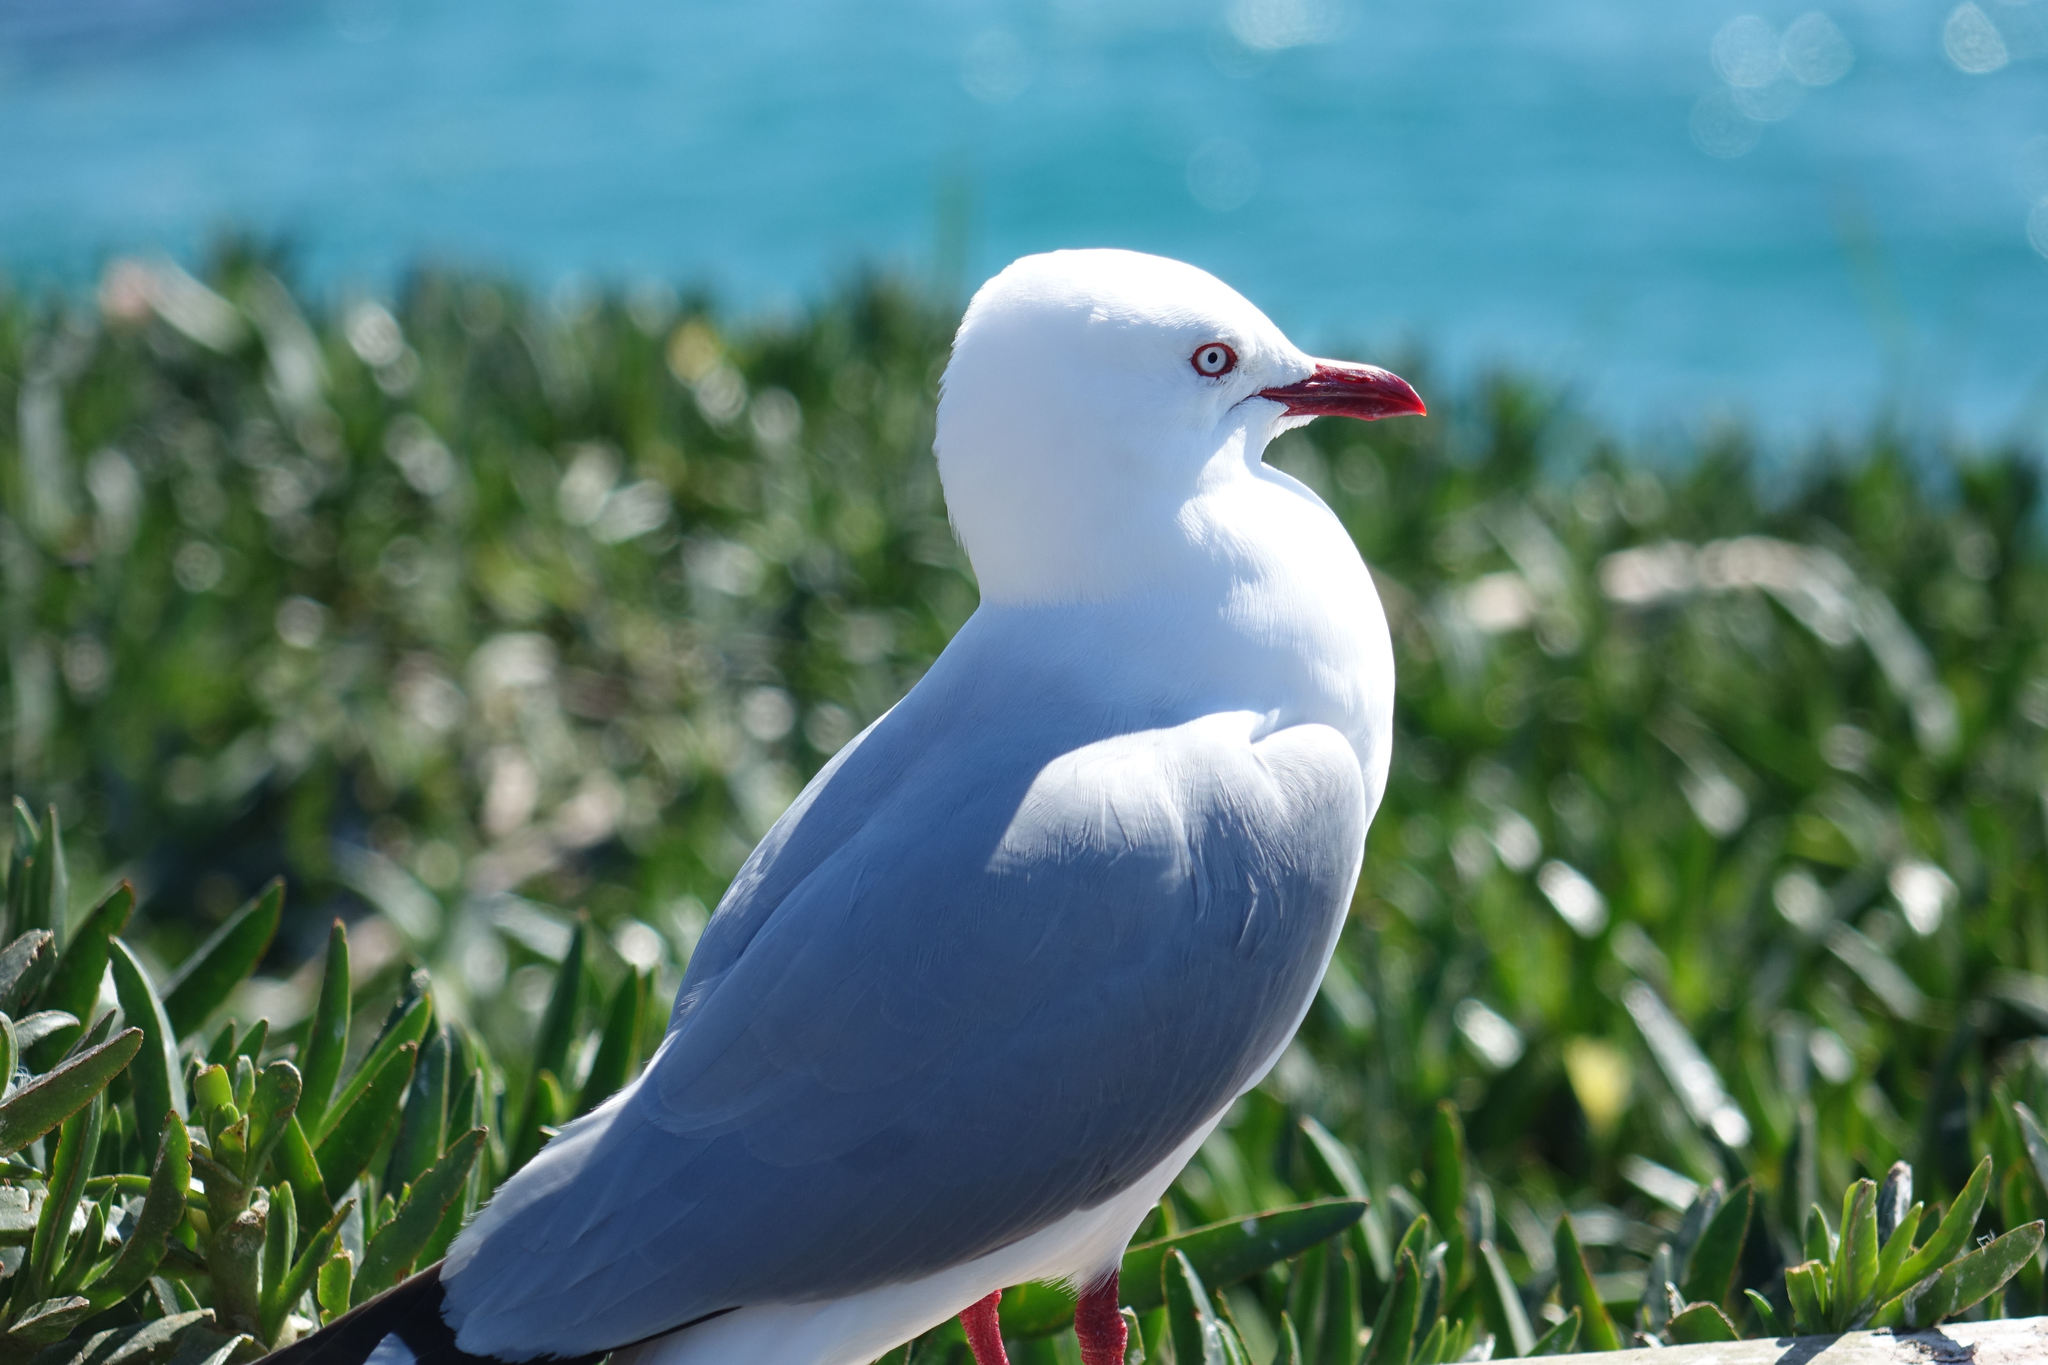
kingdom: Animalia
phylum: Chordata
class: Aves
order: Charadriiformes
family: Laridae
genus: Chroicocephalus
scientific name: Chroicocephalus novaehollandiae
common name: Silver gull
